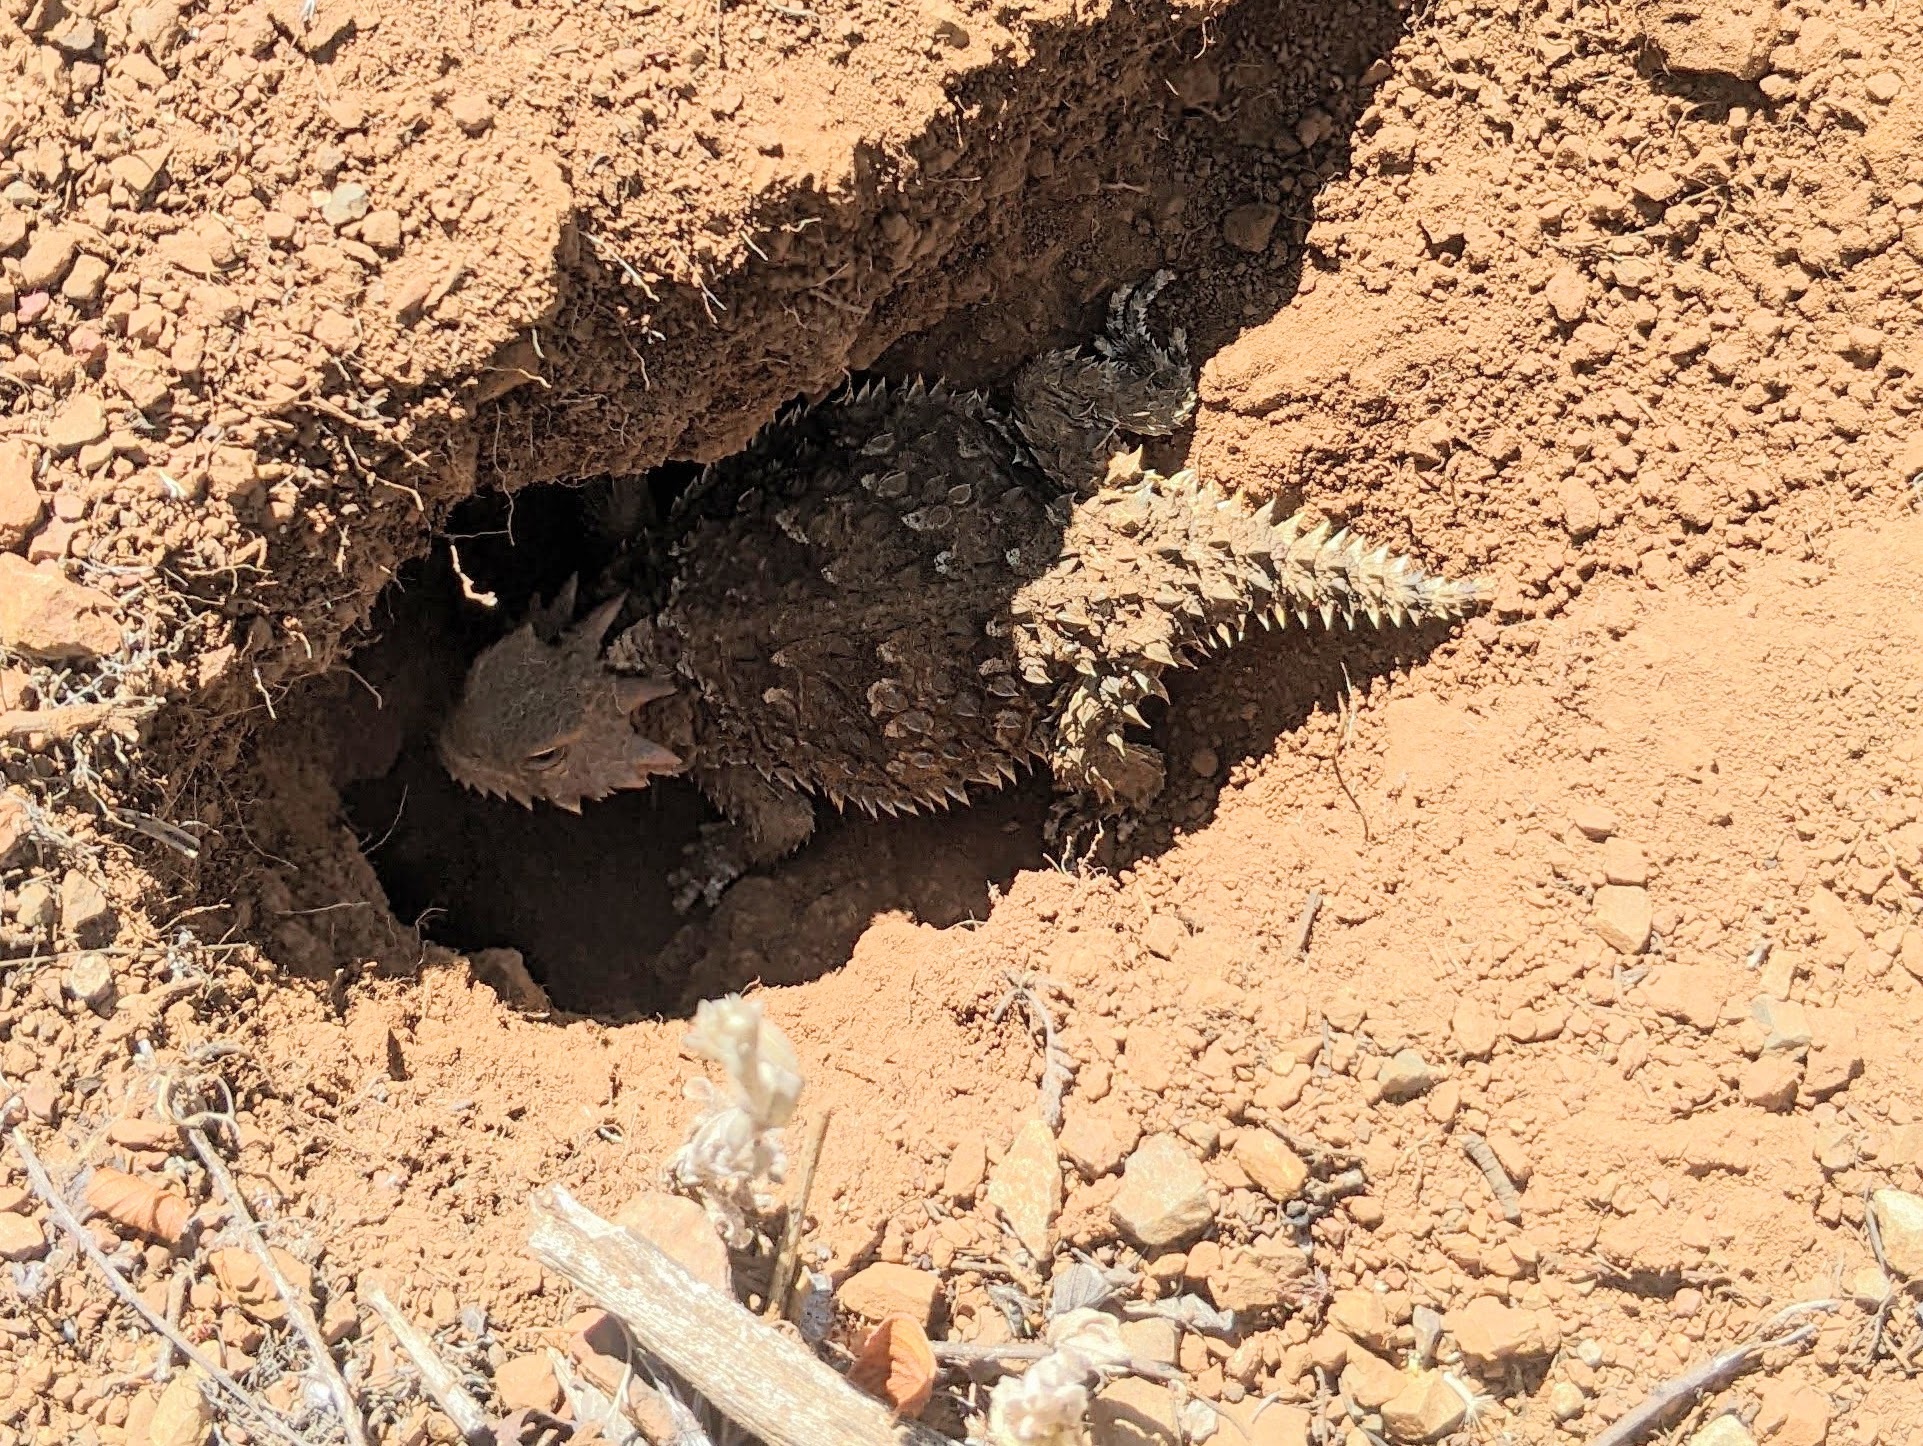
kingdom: Animalia
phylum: Chordata
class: Squamata
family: Phrynosomatidae
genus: Phrynosoma
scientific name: Phrynosoma blainvillii
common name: San diego horned lizard
